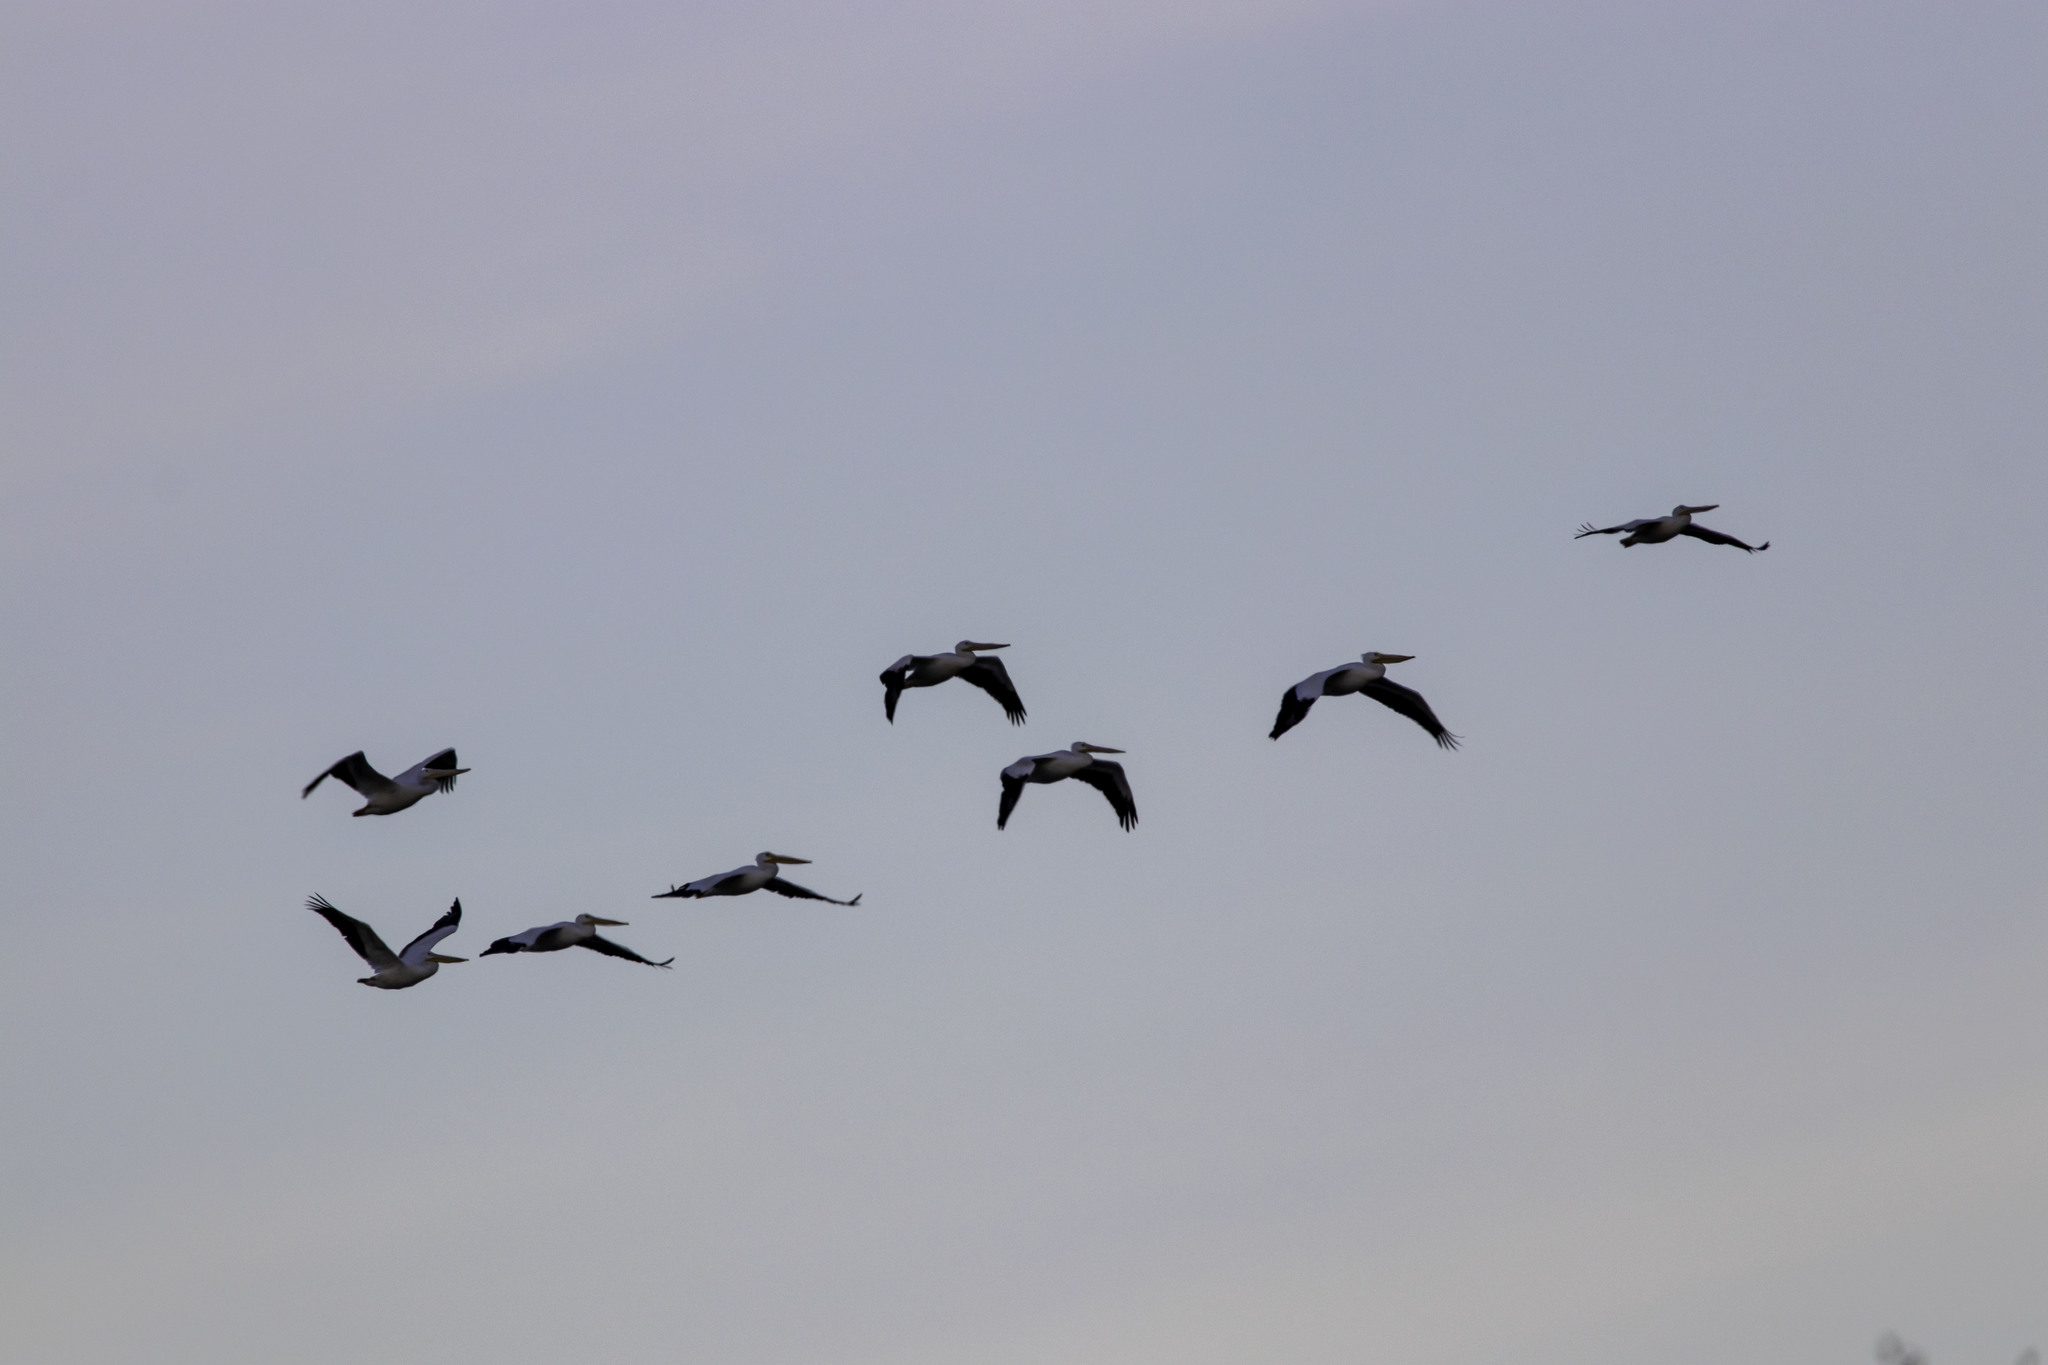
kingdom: Animalia
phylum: Chordata
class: Aves
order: Pelecaniformes
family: Pelecanidae
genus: Pelecanus
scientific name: Pelecanus erythrorhynchos
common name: American white pelican
